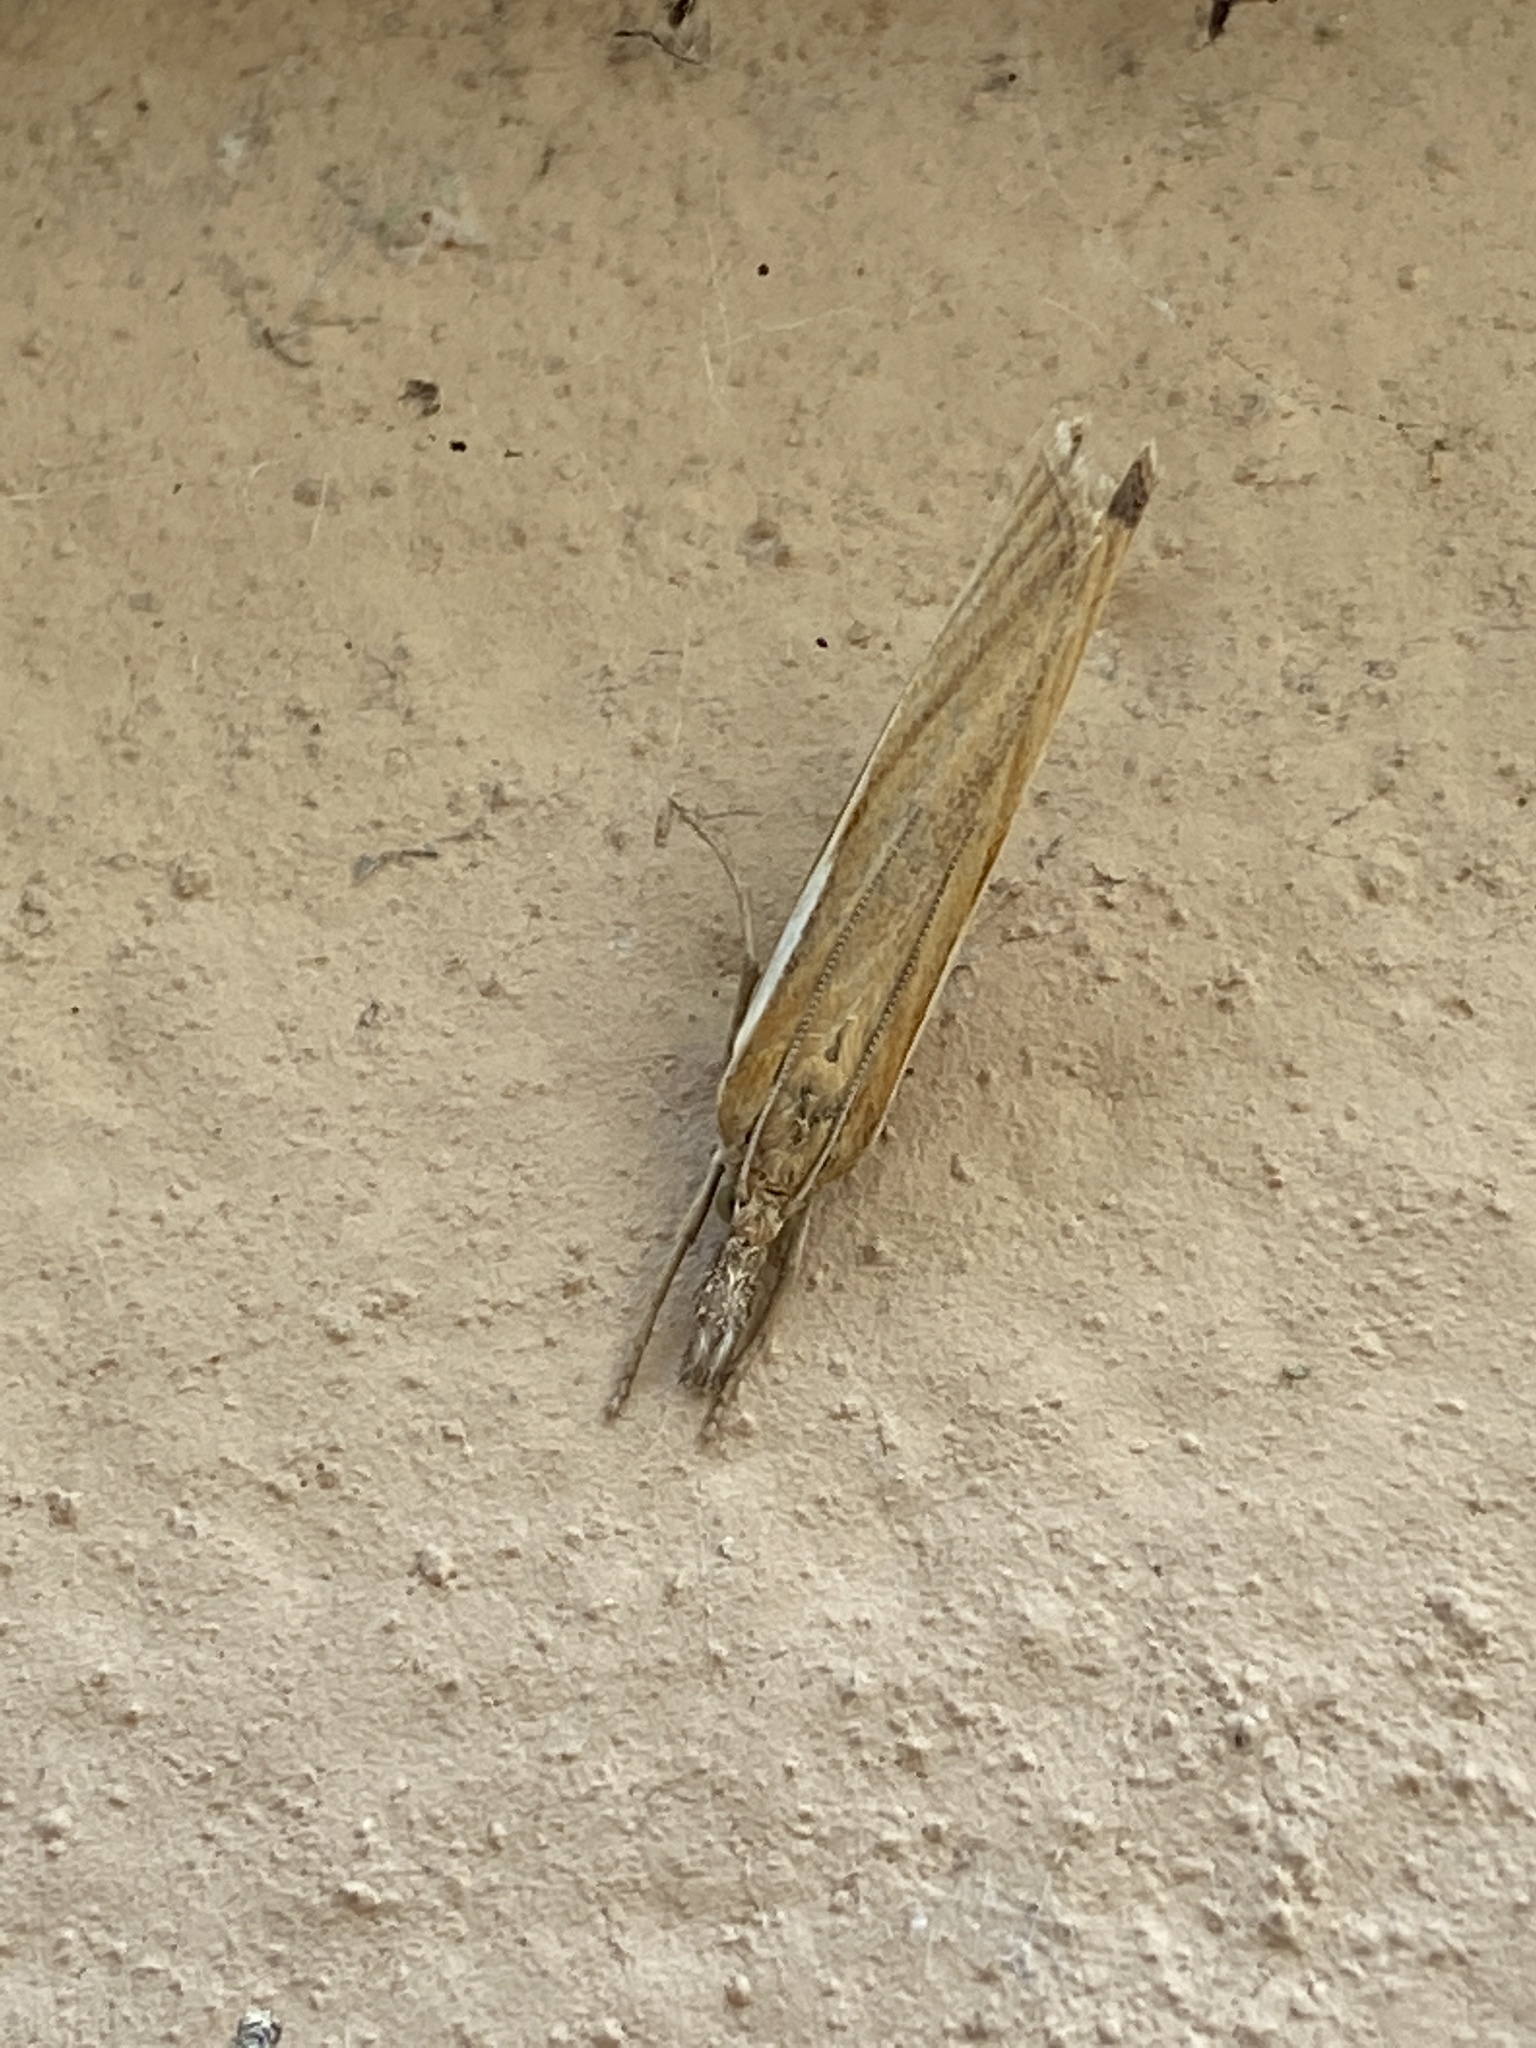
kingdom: Animalia
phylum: Arthropoda
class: Insecta
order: Lepidoptera
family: Crambidae
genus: Agriphila
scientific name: Agriphila tristellus
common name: Common grass-veneer
